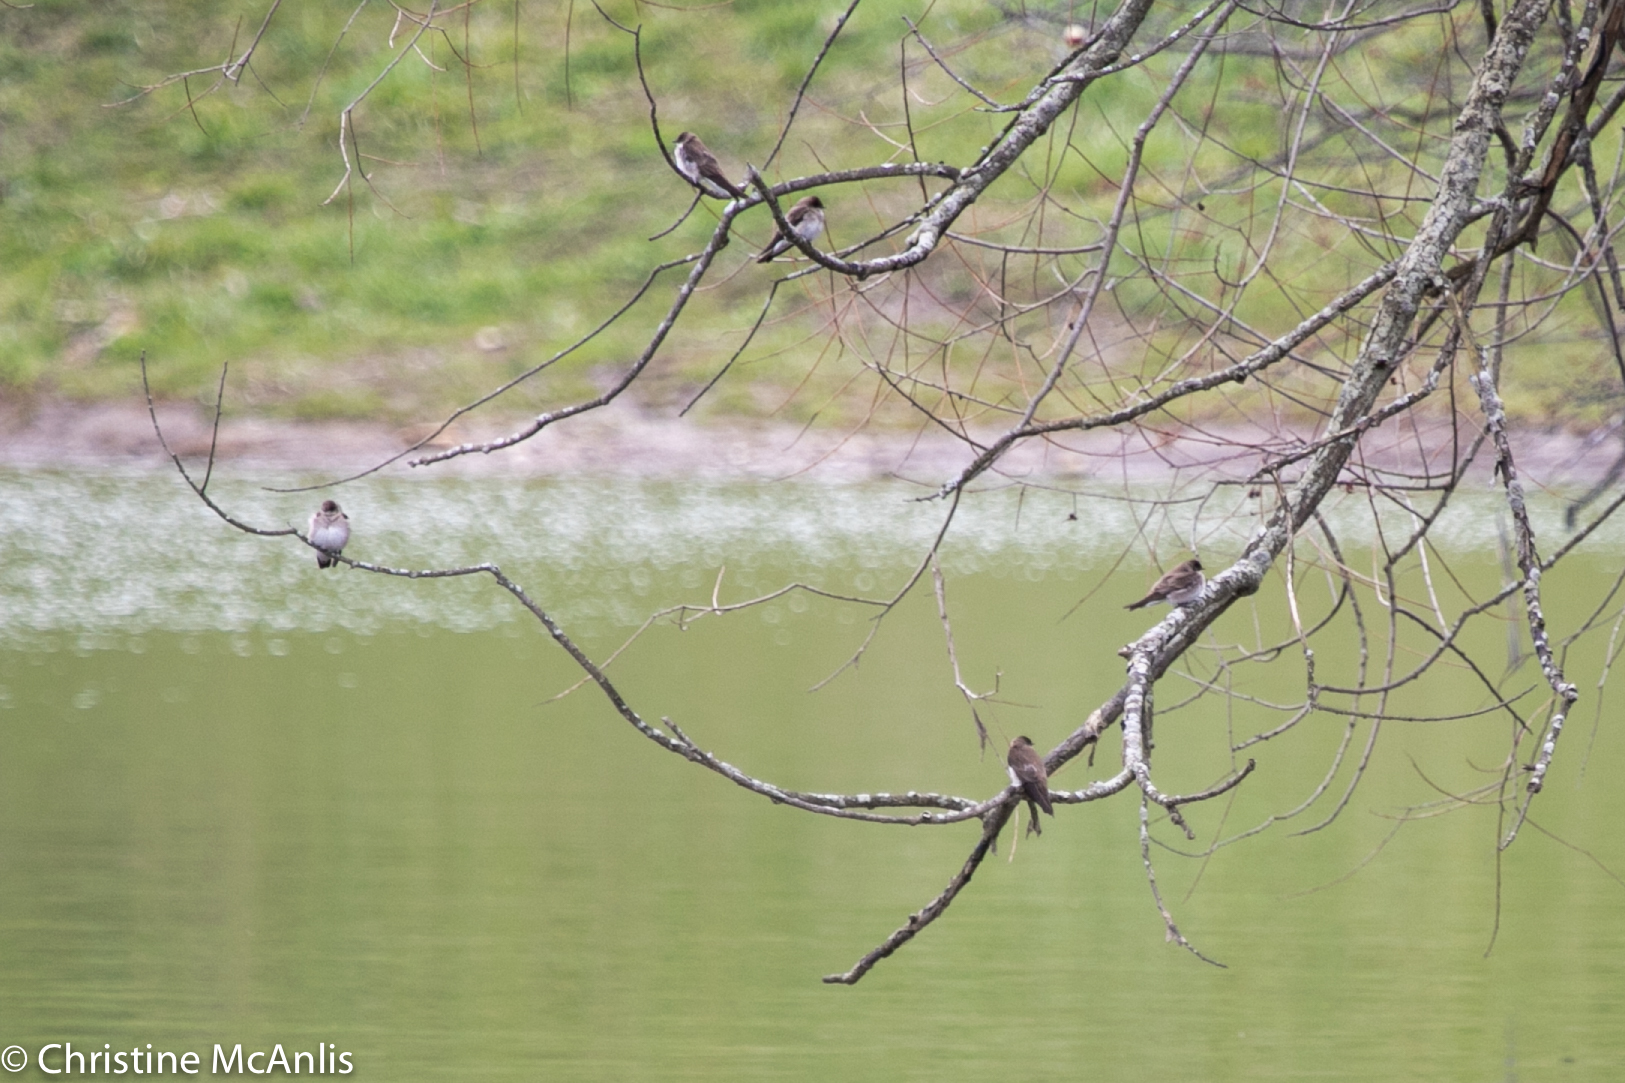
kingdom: Animalia
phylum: Chordata
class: Aves
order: Passeriformes
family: Hirundinidae
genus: Stelgidopteryx
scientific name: Stelgidopteryx serripennis
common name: Northern rough-winged swallow
